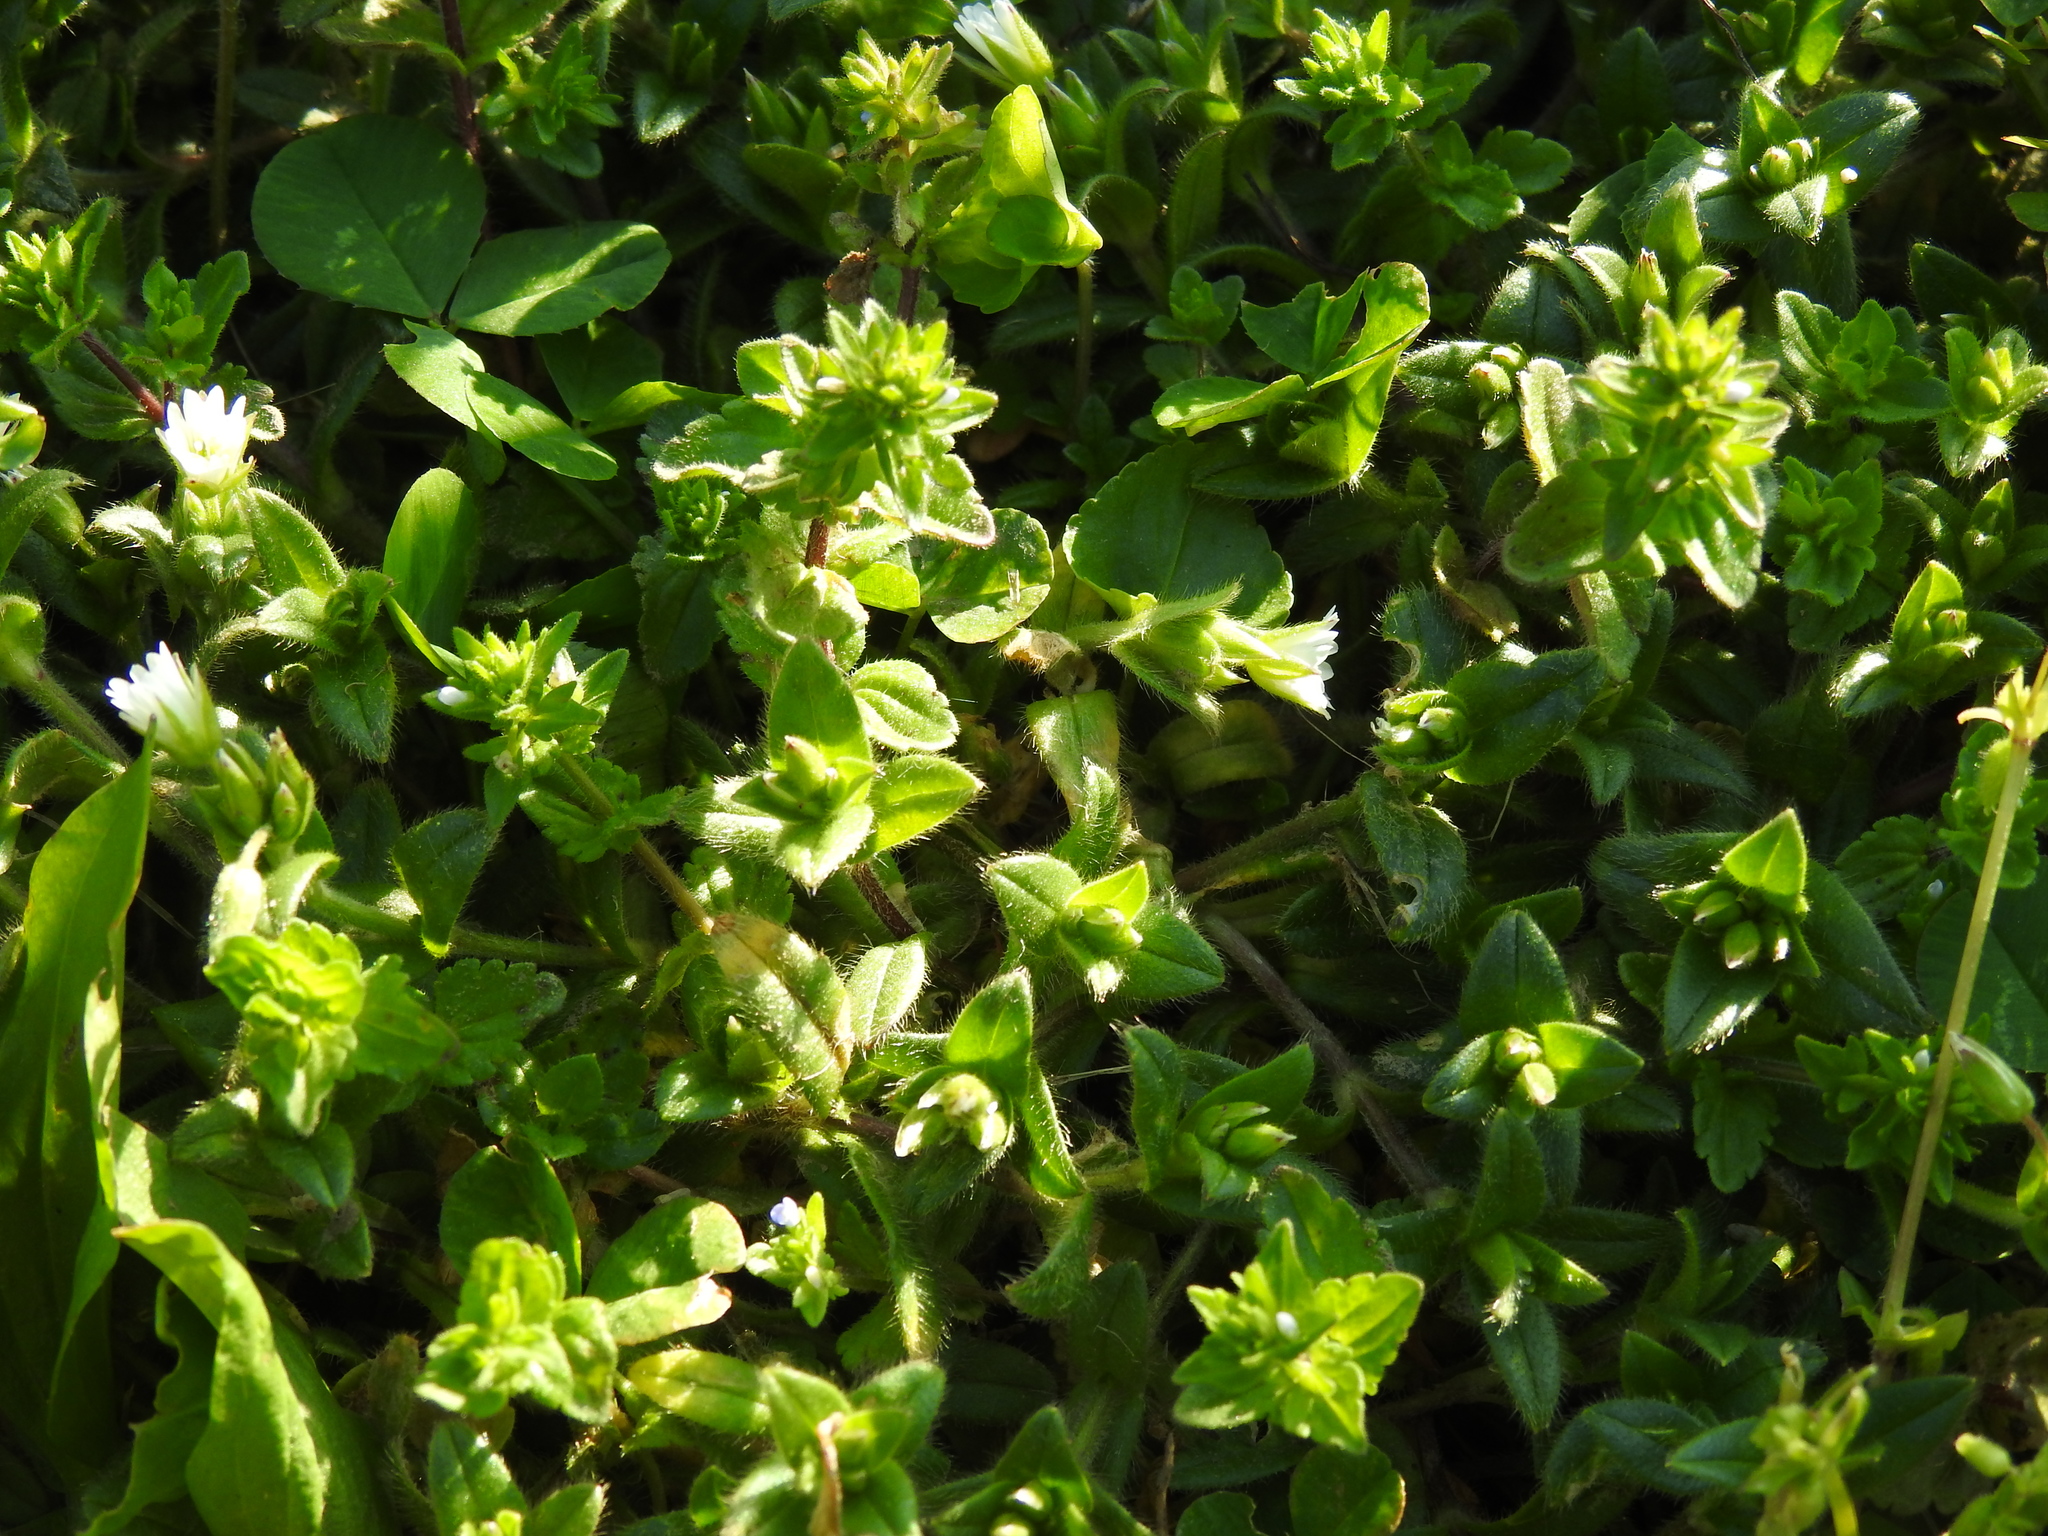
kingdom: Plantae
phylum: Tracheophyta
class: Magnoliopsida
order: Lamiales
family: Plantaginaceae
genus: Veronica
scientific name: Veronica arvensis
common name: Corn speedwell
